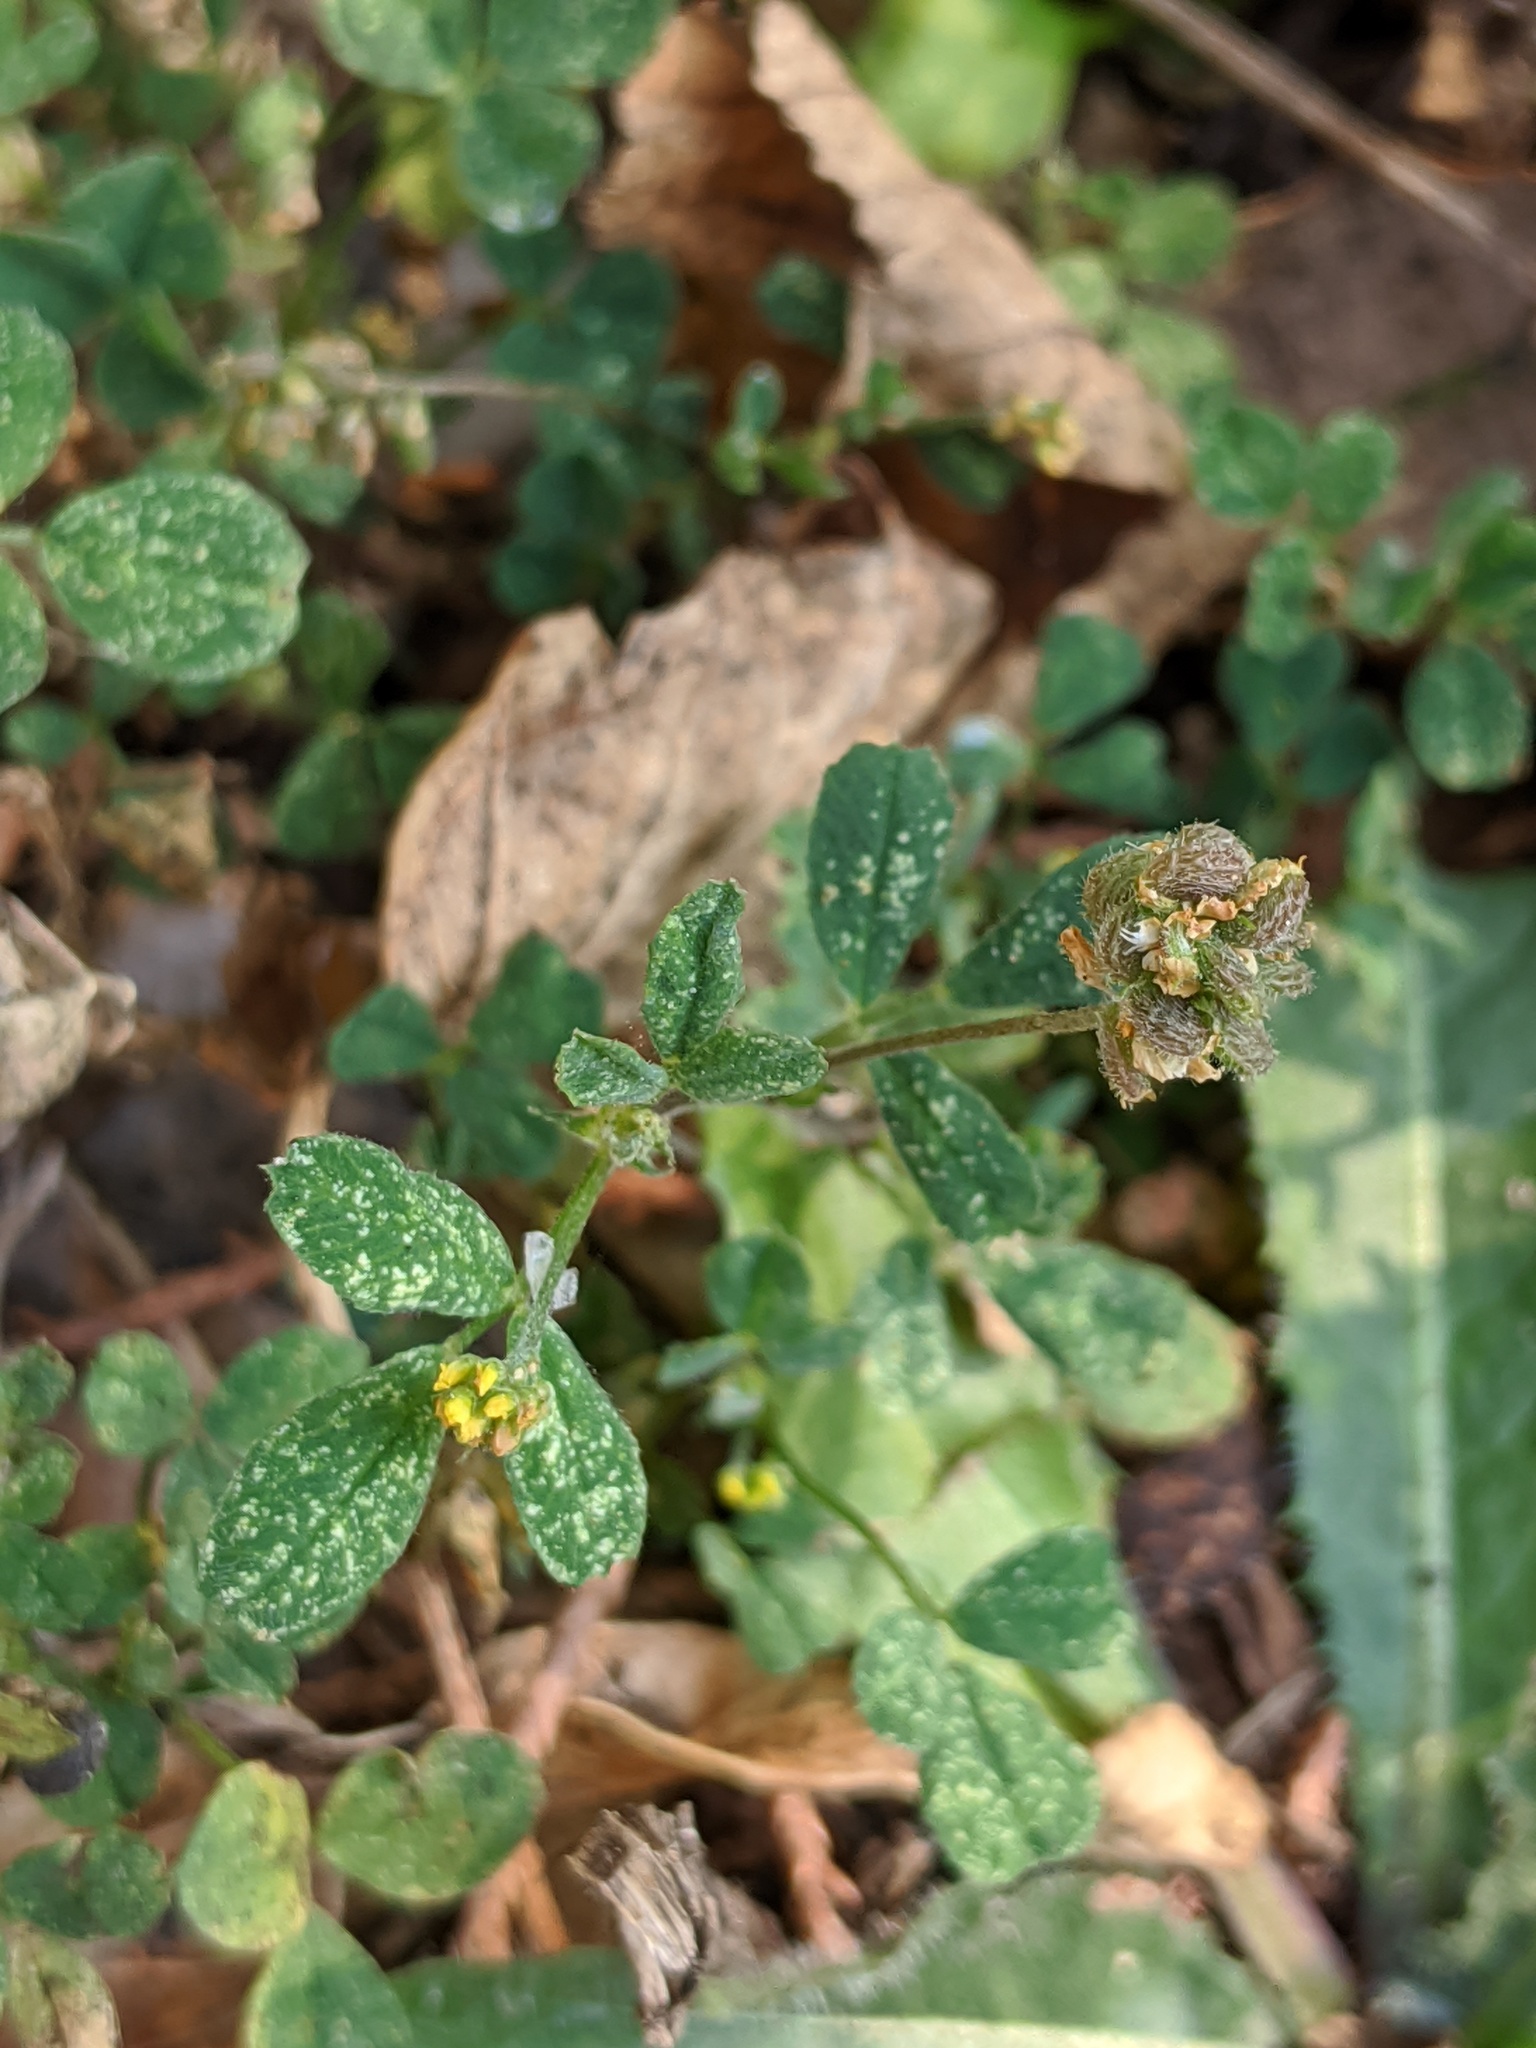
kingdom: Plantae
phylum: Tracheophyta
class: Magnoliopsida
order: Fabales
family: Fabaceae
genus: Medicago
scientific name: Medicago lupulina
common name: Black medick
